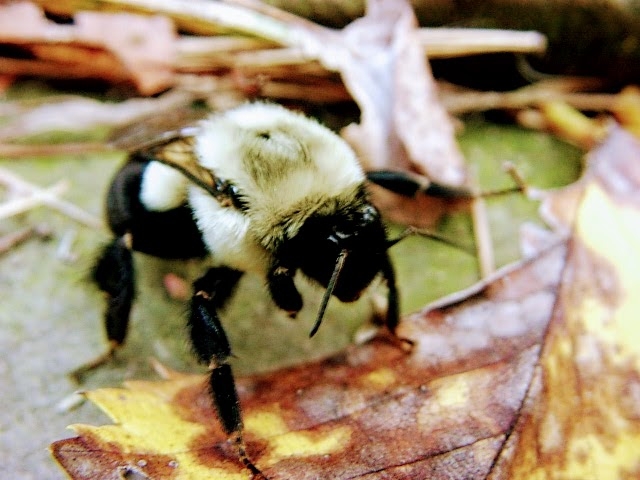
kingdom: Animalia
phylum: Arthropoda
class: Insecta
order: Hymenoptera
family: Apidae
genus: Bombus
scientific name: Bombus impatiens
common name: Common eastern bumble bee
